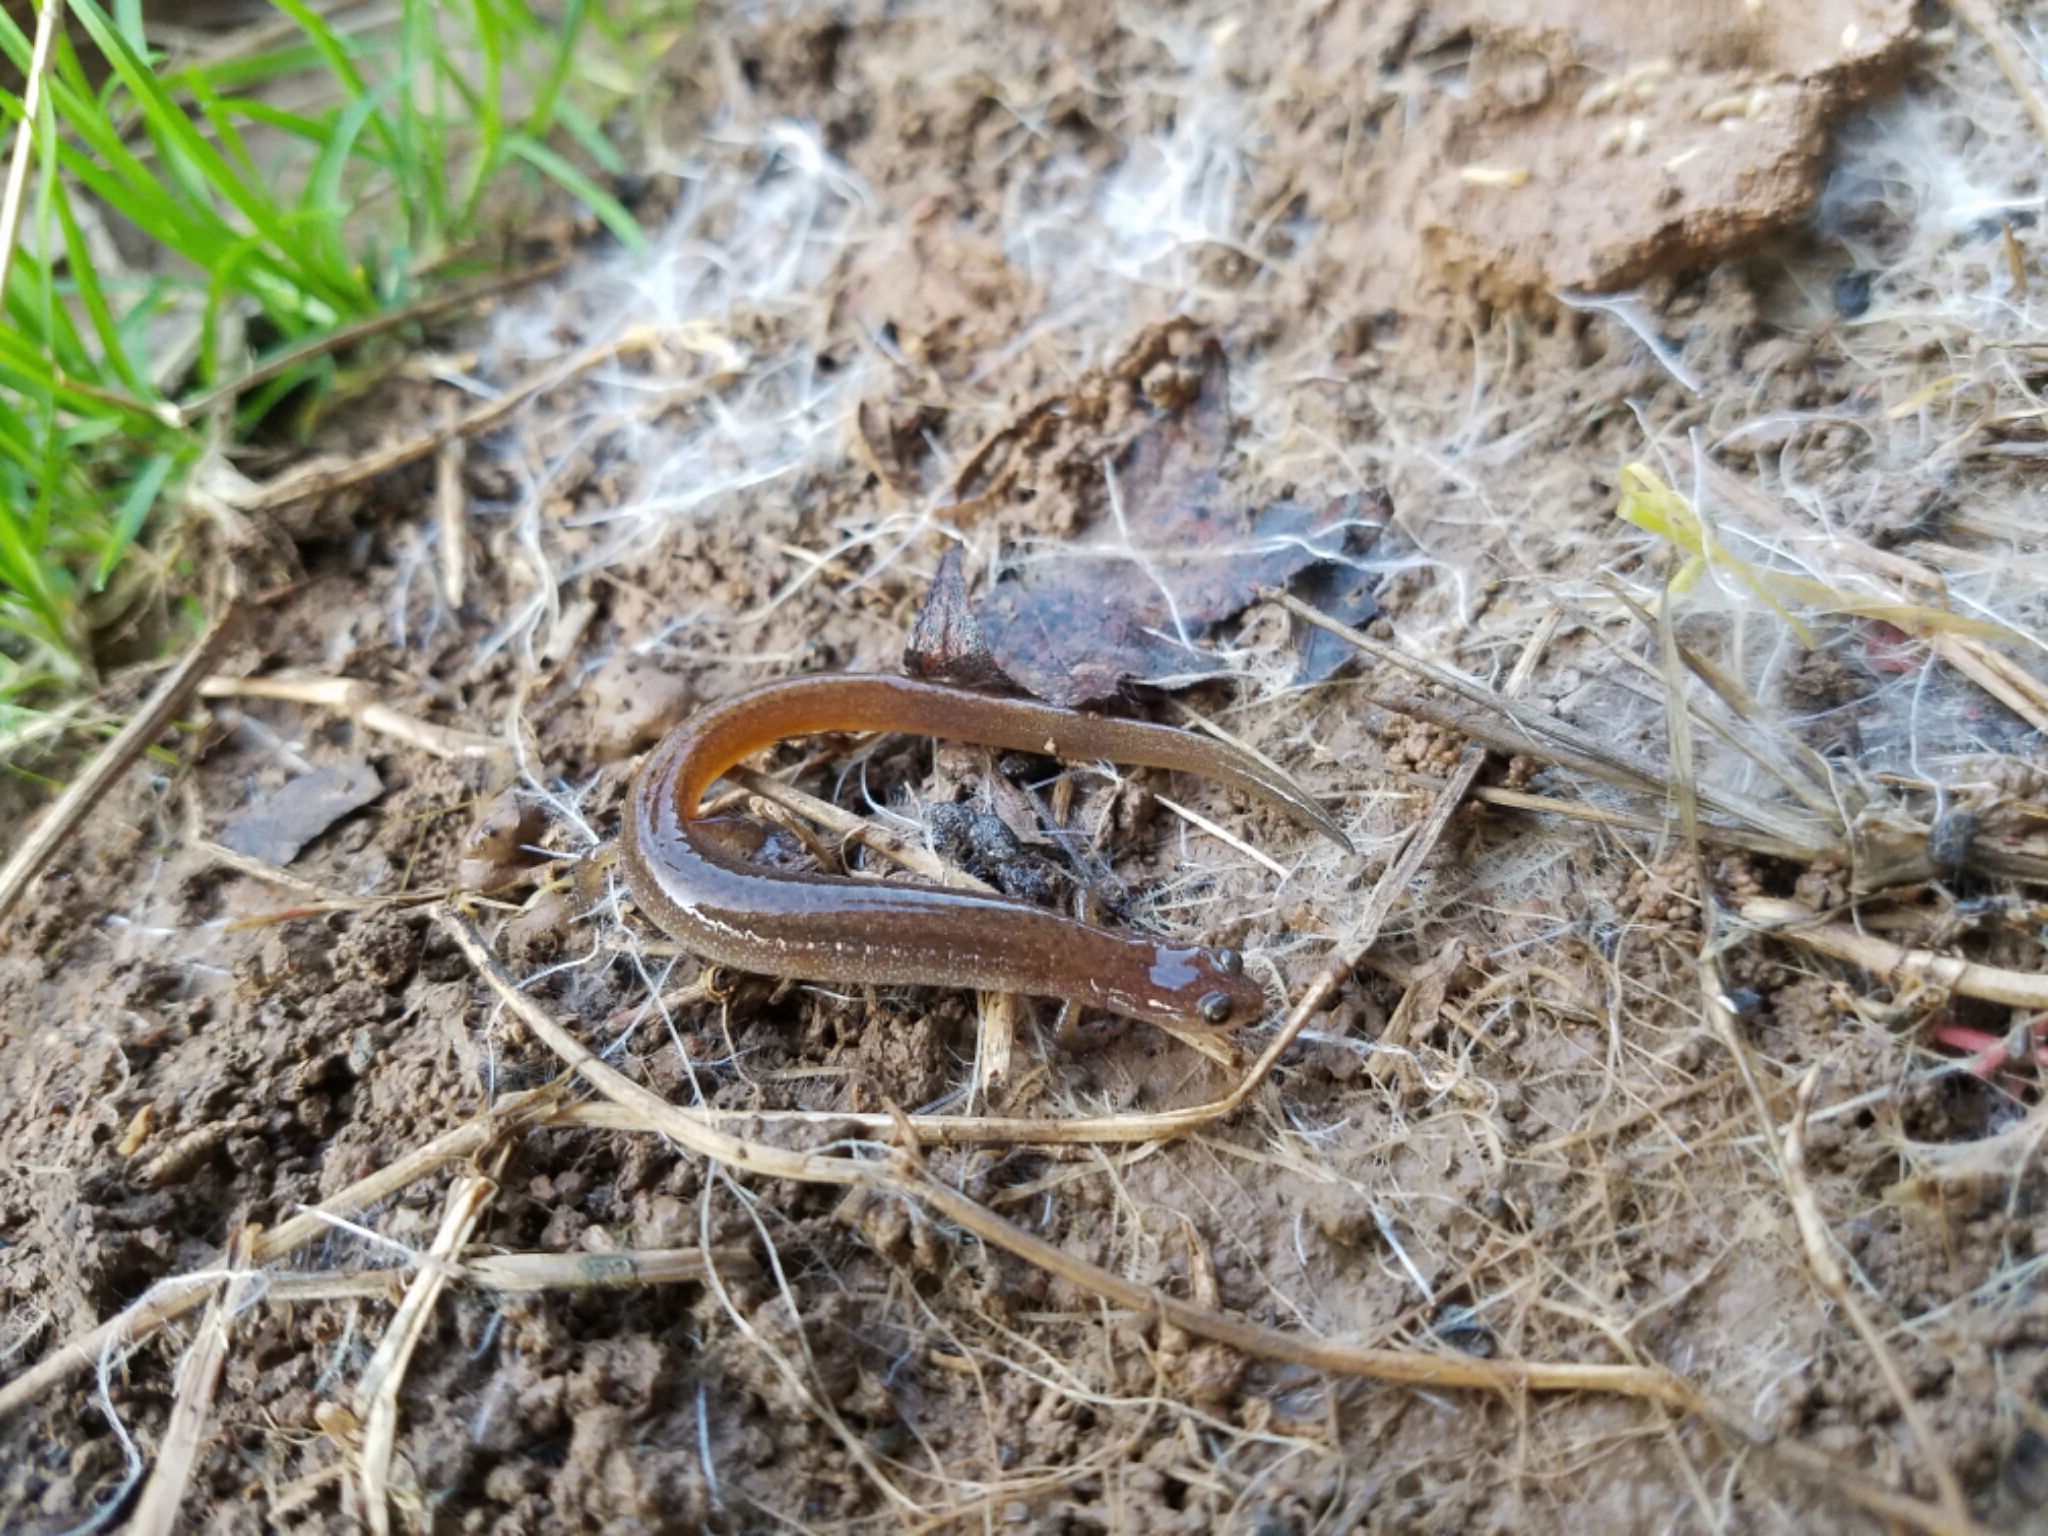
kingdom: Animalia
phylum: Chordata
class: Amphibia
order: Caudata
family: Plethodontidae
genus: Eurycea
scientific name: Eurycea multiplicata
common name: Many-ribbed salamander
